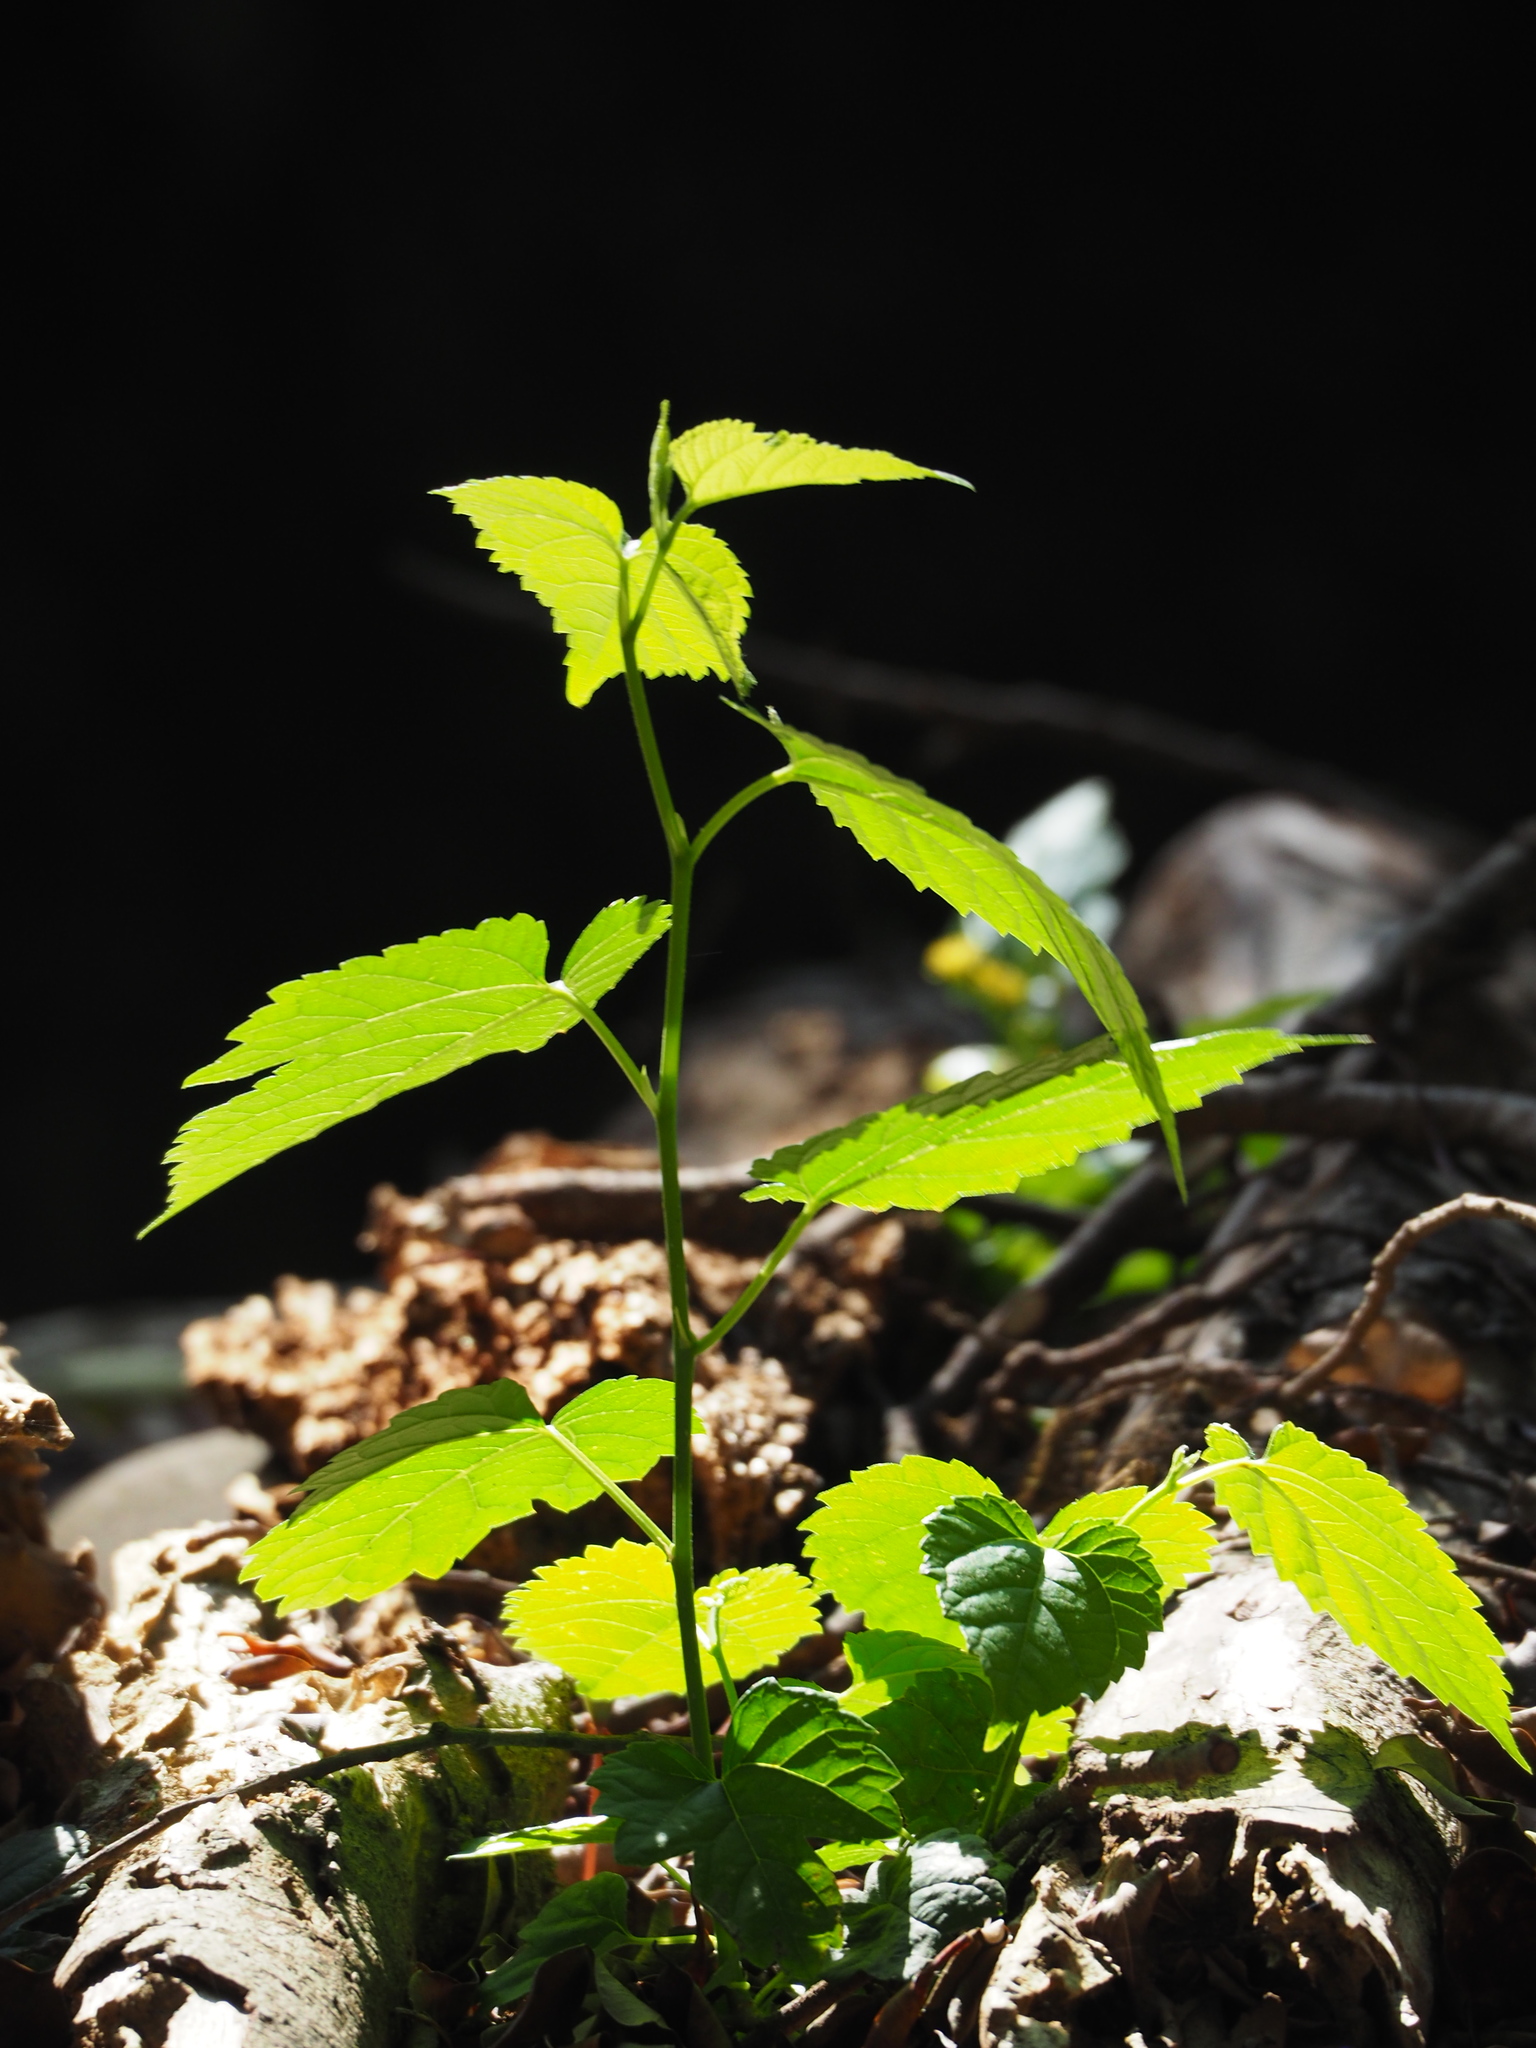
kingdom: Plantae
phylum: Tracheophyta
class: Magnoliopsida
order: Rosales
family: Moraceae
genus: Morus
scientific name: Morus indica
